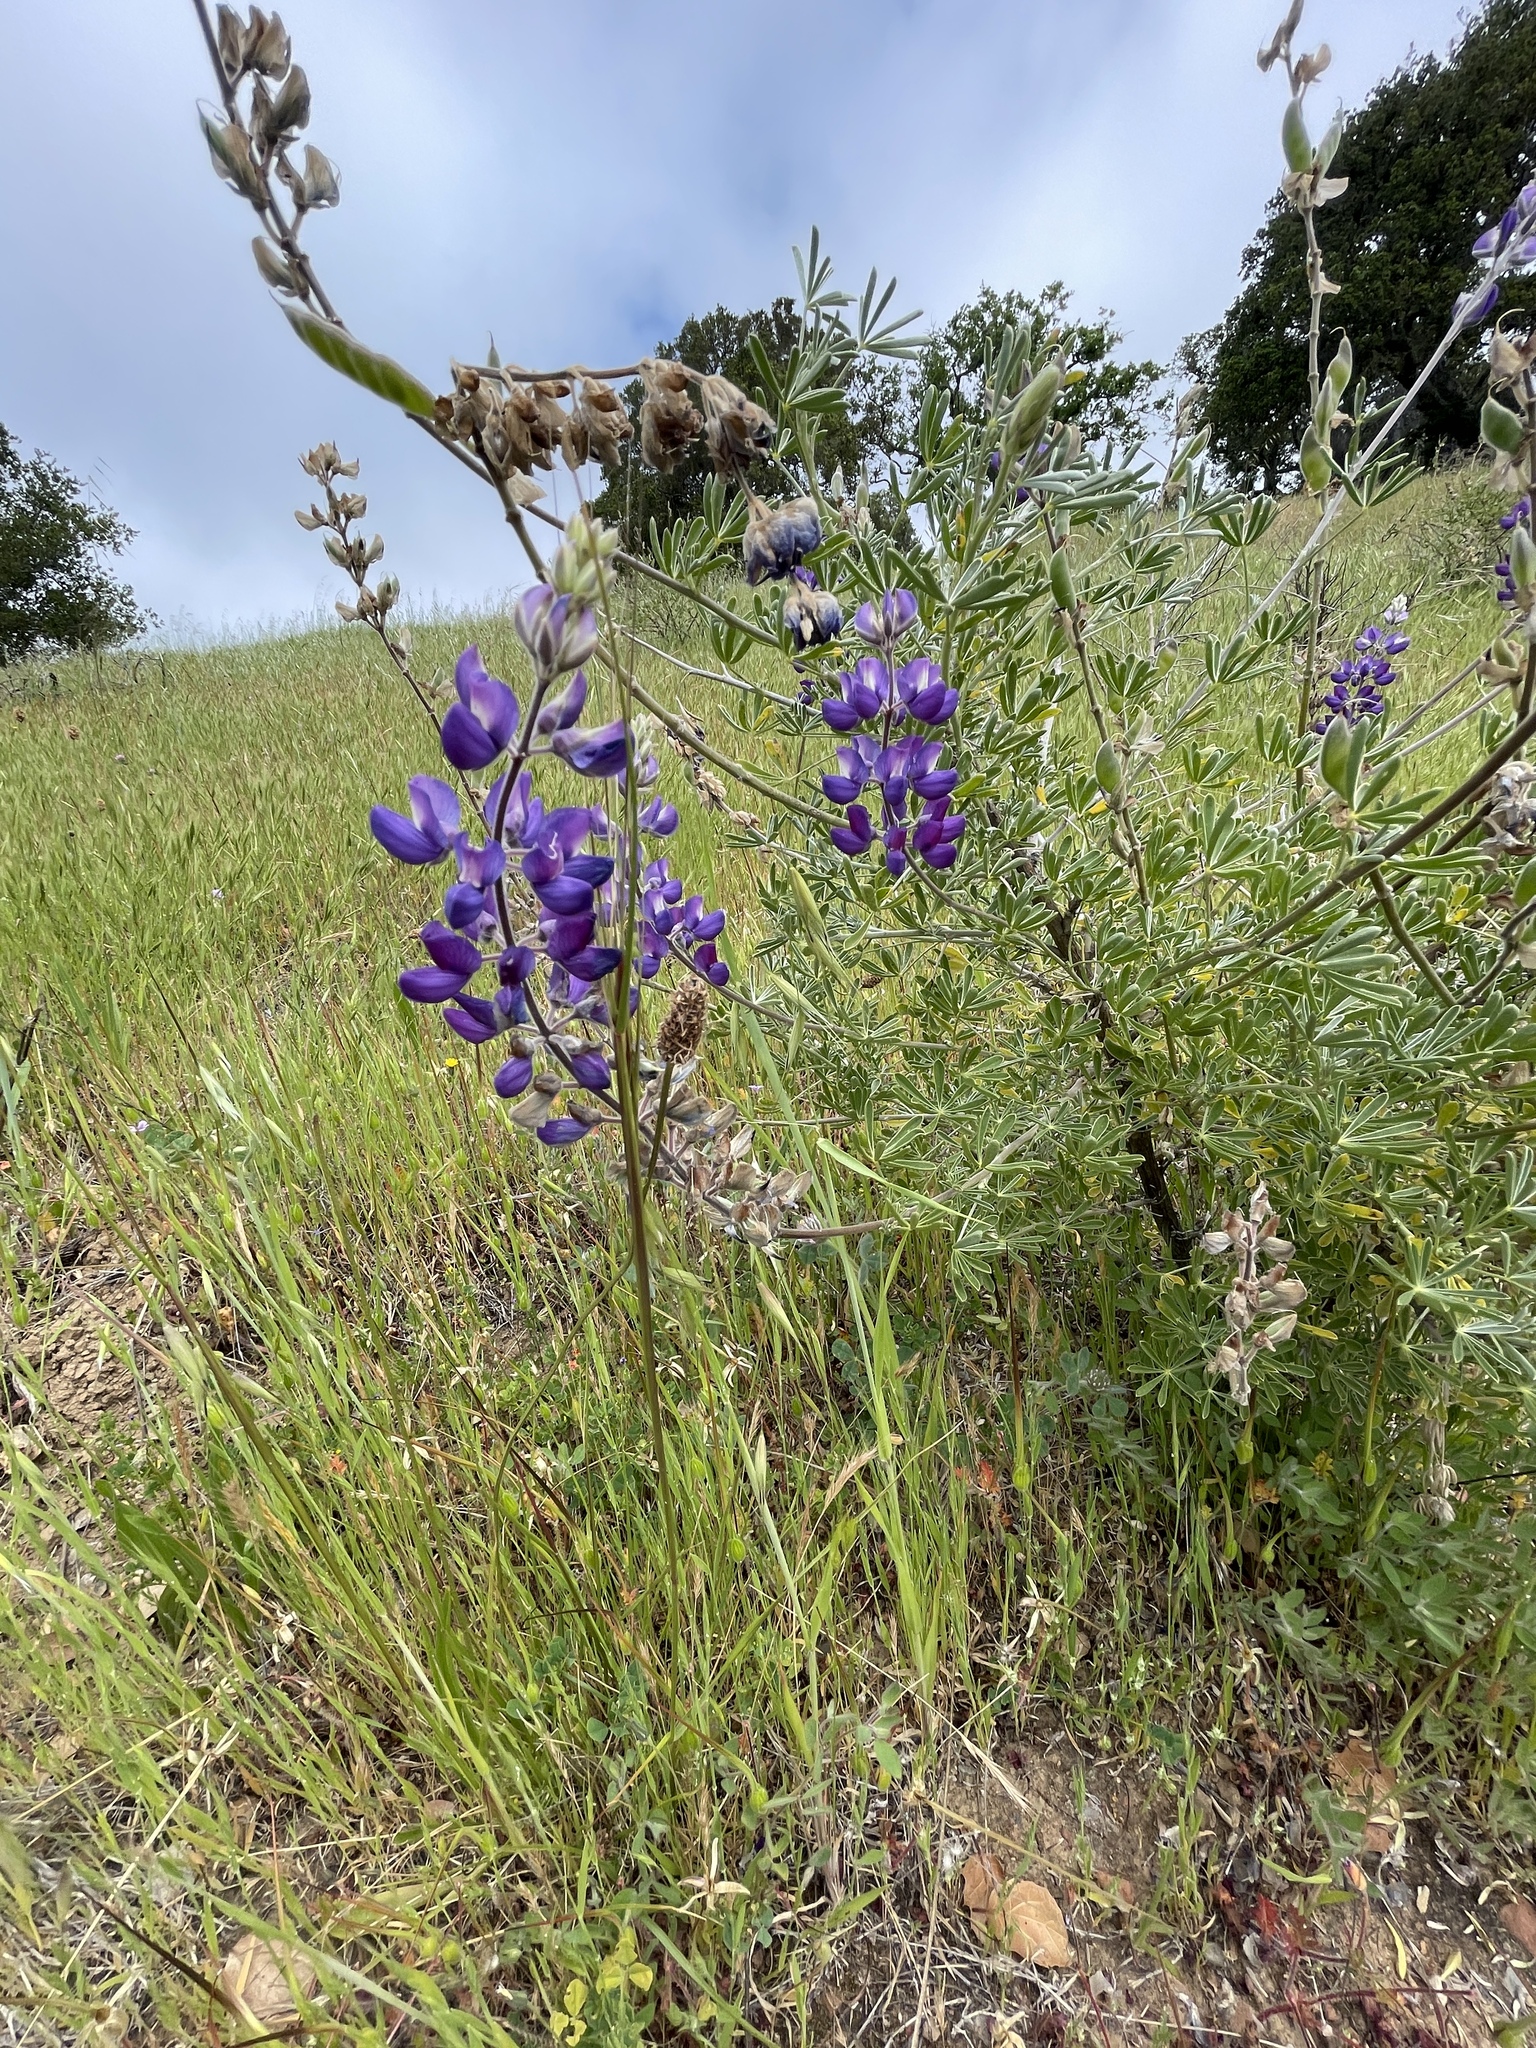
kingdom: Plantae
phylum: Tracheophyta
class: Magnoliopsida
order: Fabales
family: Fabaceae
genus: Lupinus
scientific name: Lupinus albifrons
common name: Foothill lupine
